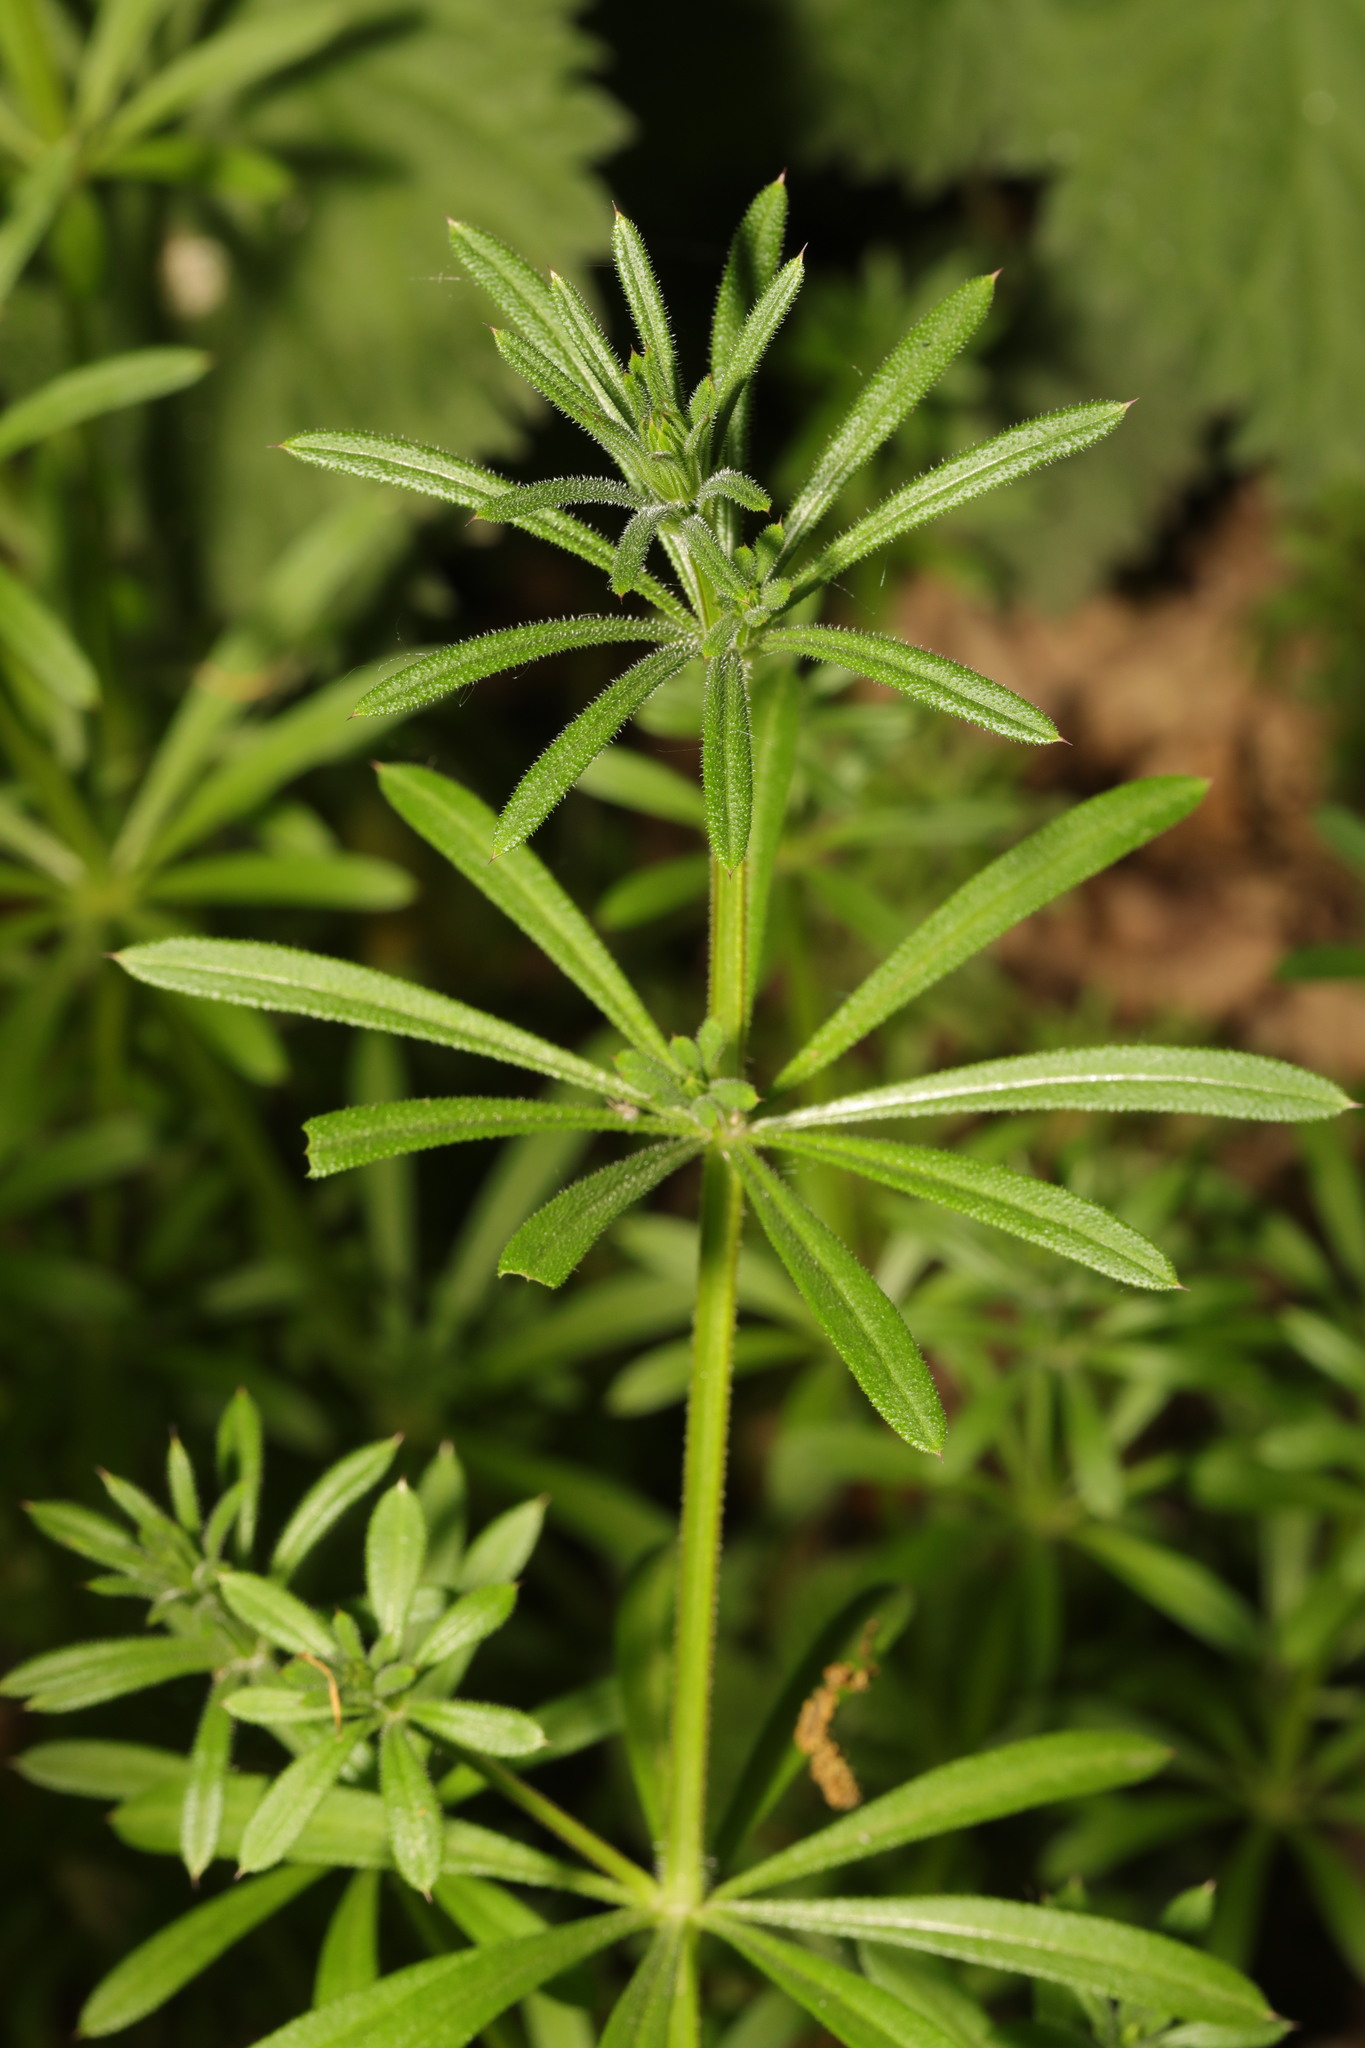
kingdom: Plantae
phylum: Tracheophyta
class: Magnoliopsida
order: Gentianales
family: Rubiaceae
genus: Galium
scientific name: Galium aparine
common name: Cleavers
